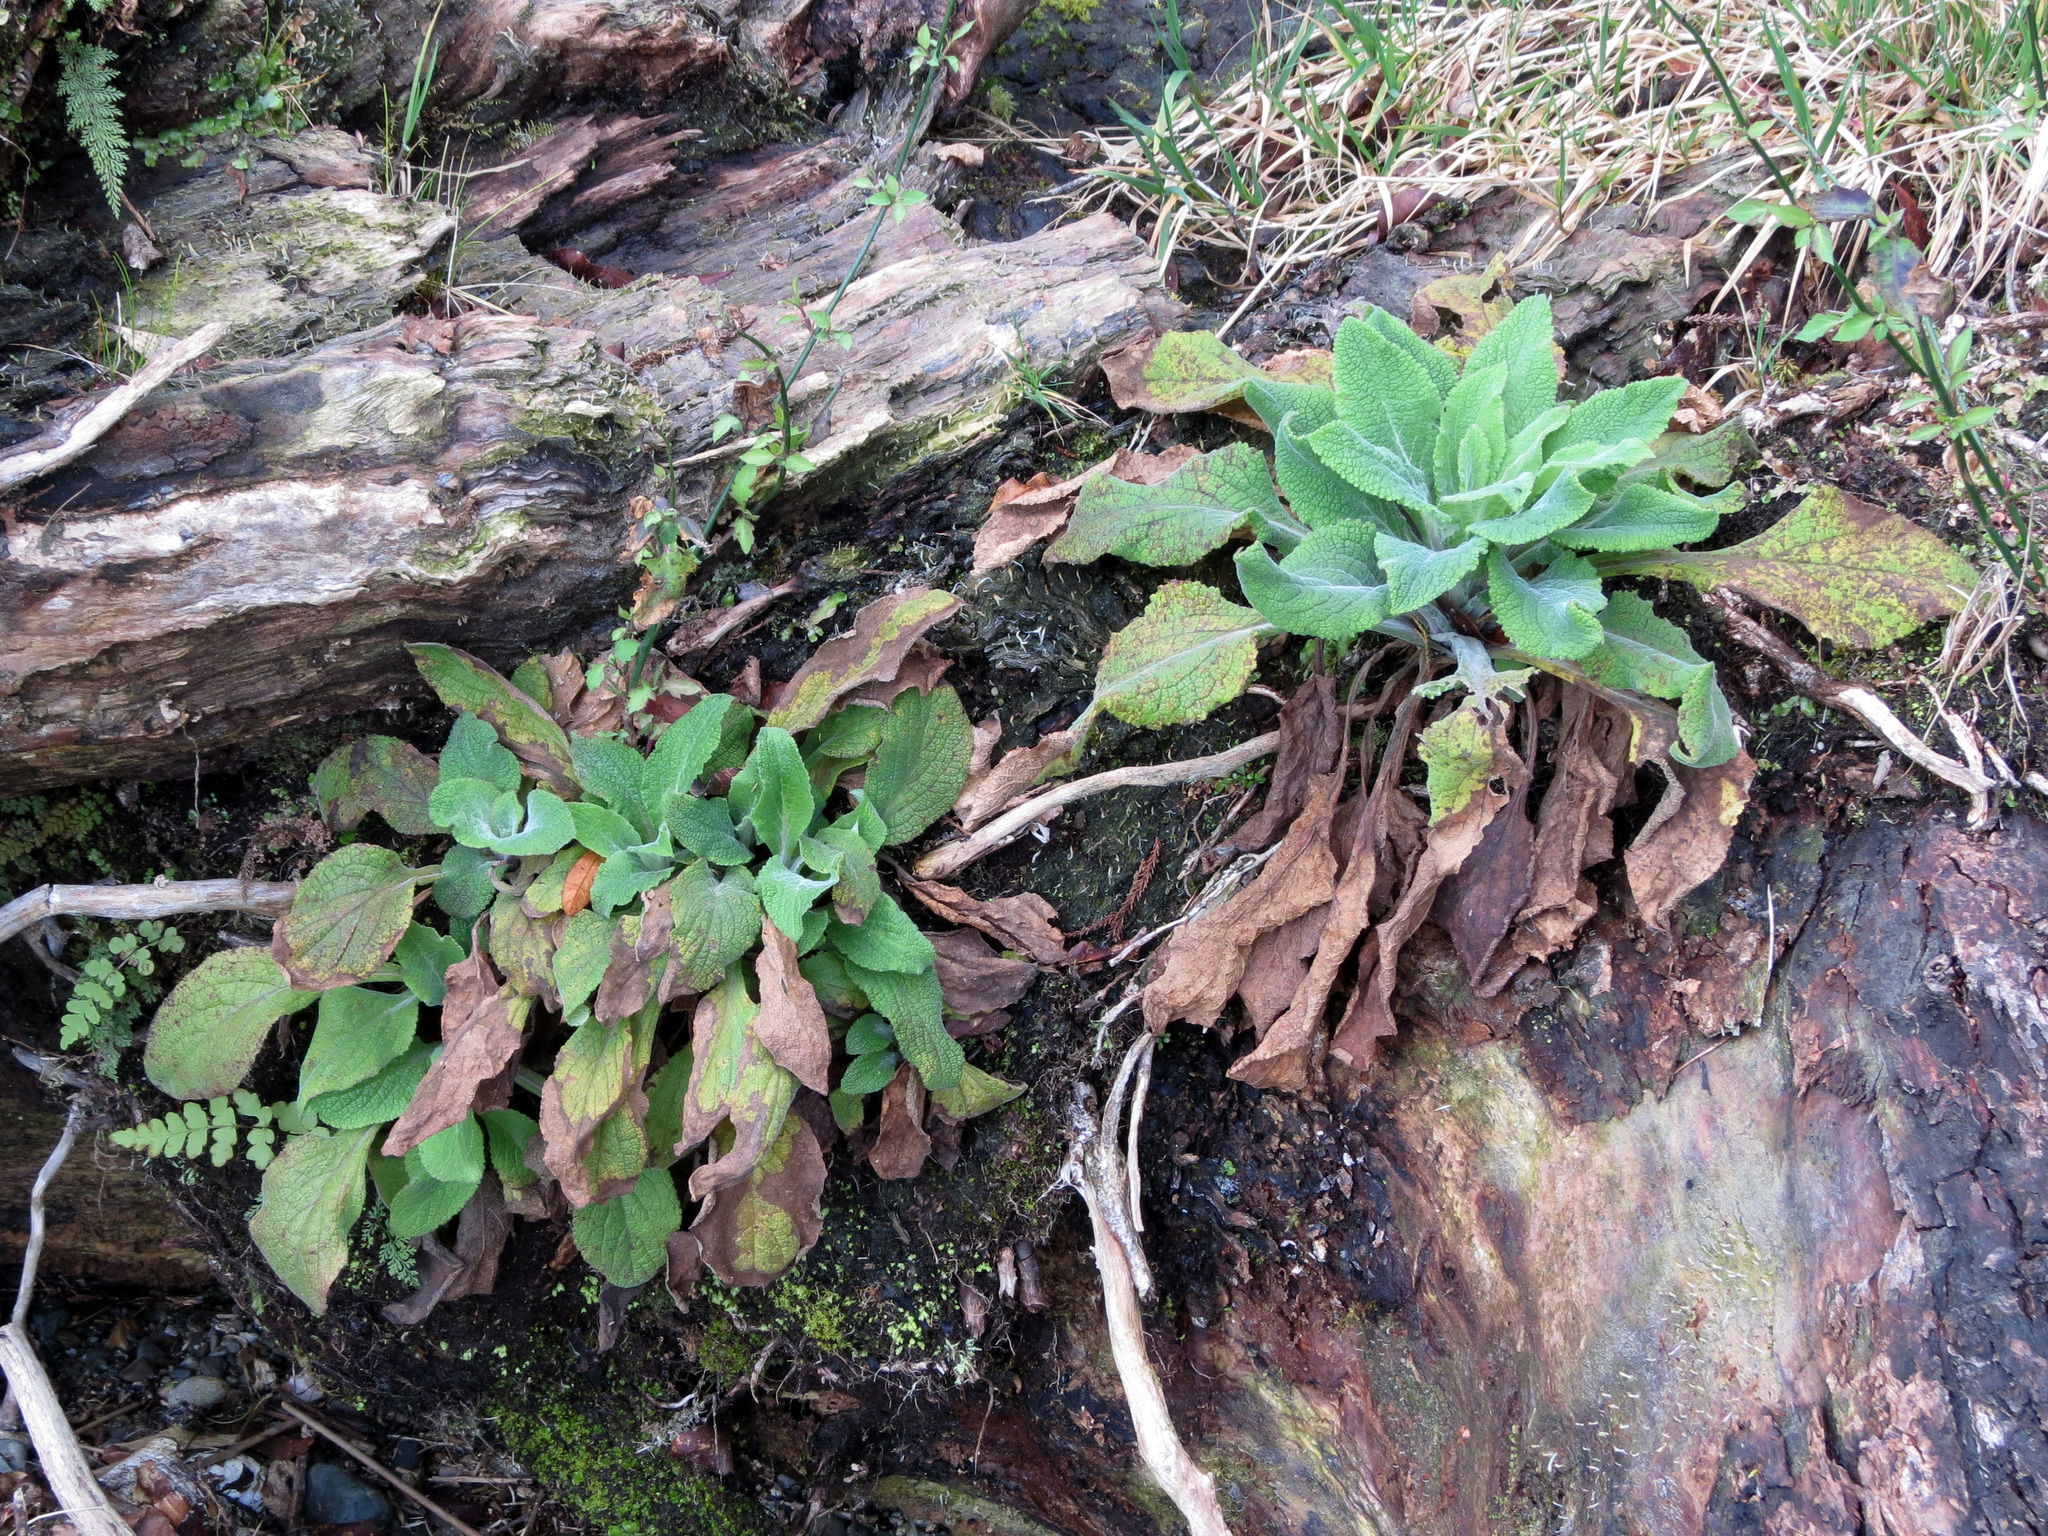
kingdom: Plantae
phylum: Tracheophyta
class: Magnoliopsida
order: Lamiales
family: Plantaginaceae
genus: Digitalis
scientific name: Digitalis purpurea
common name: Foxglove
